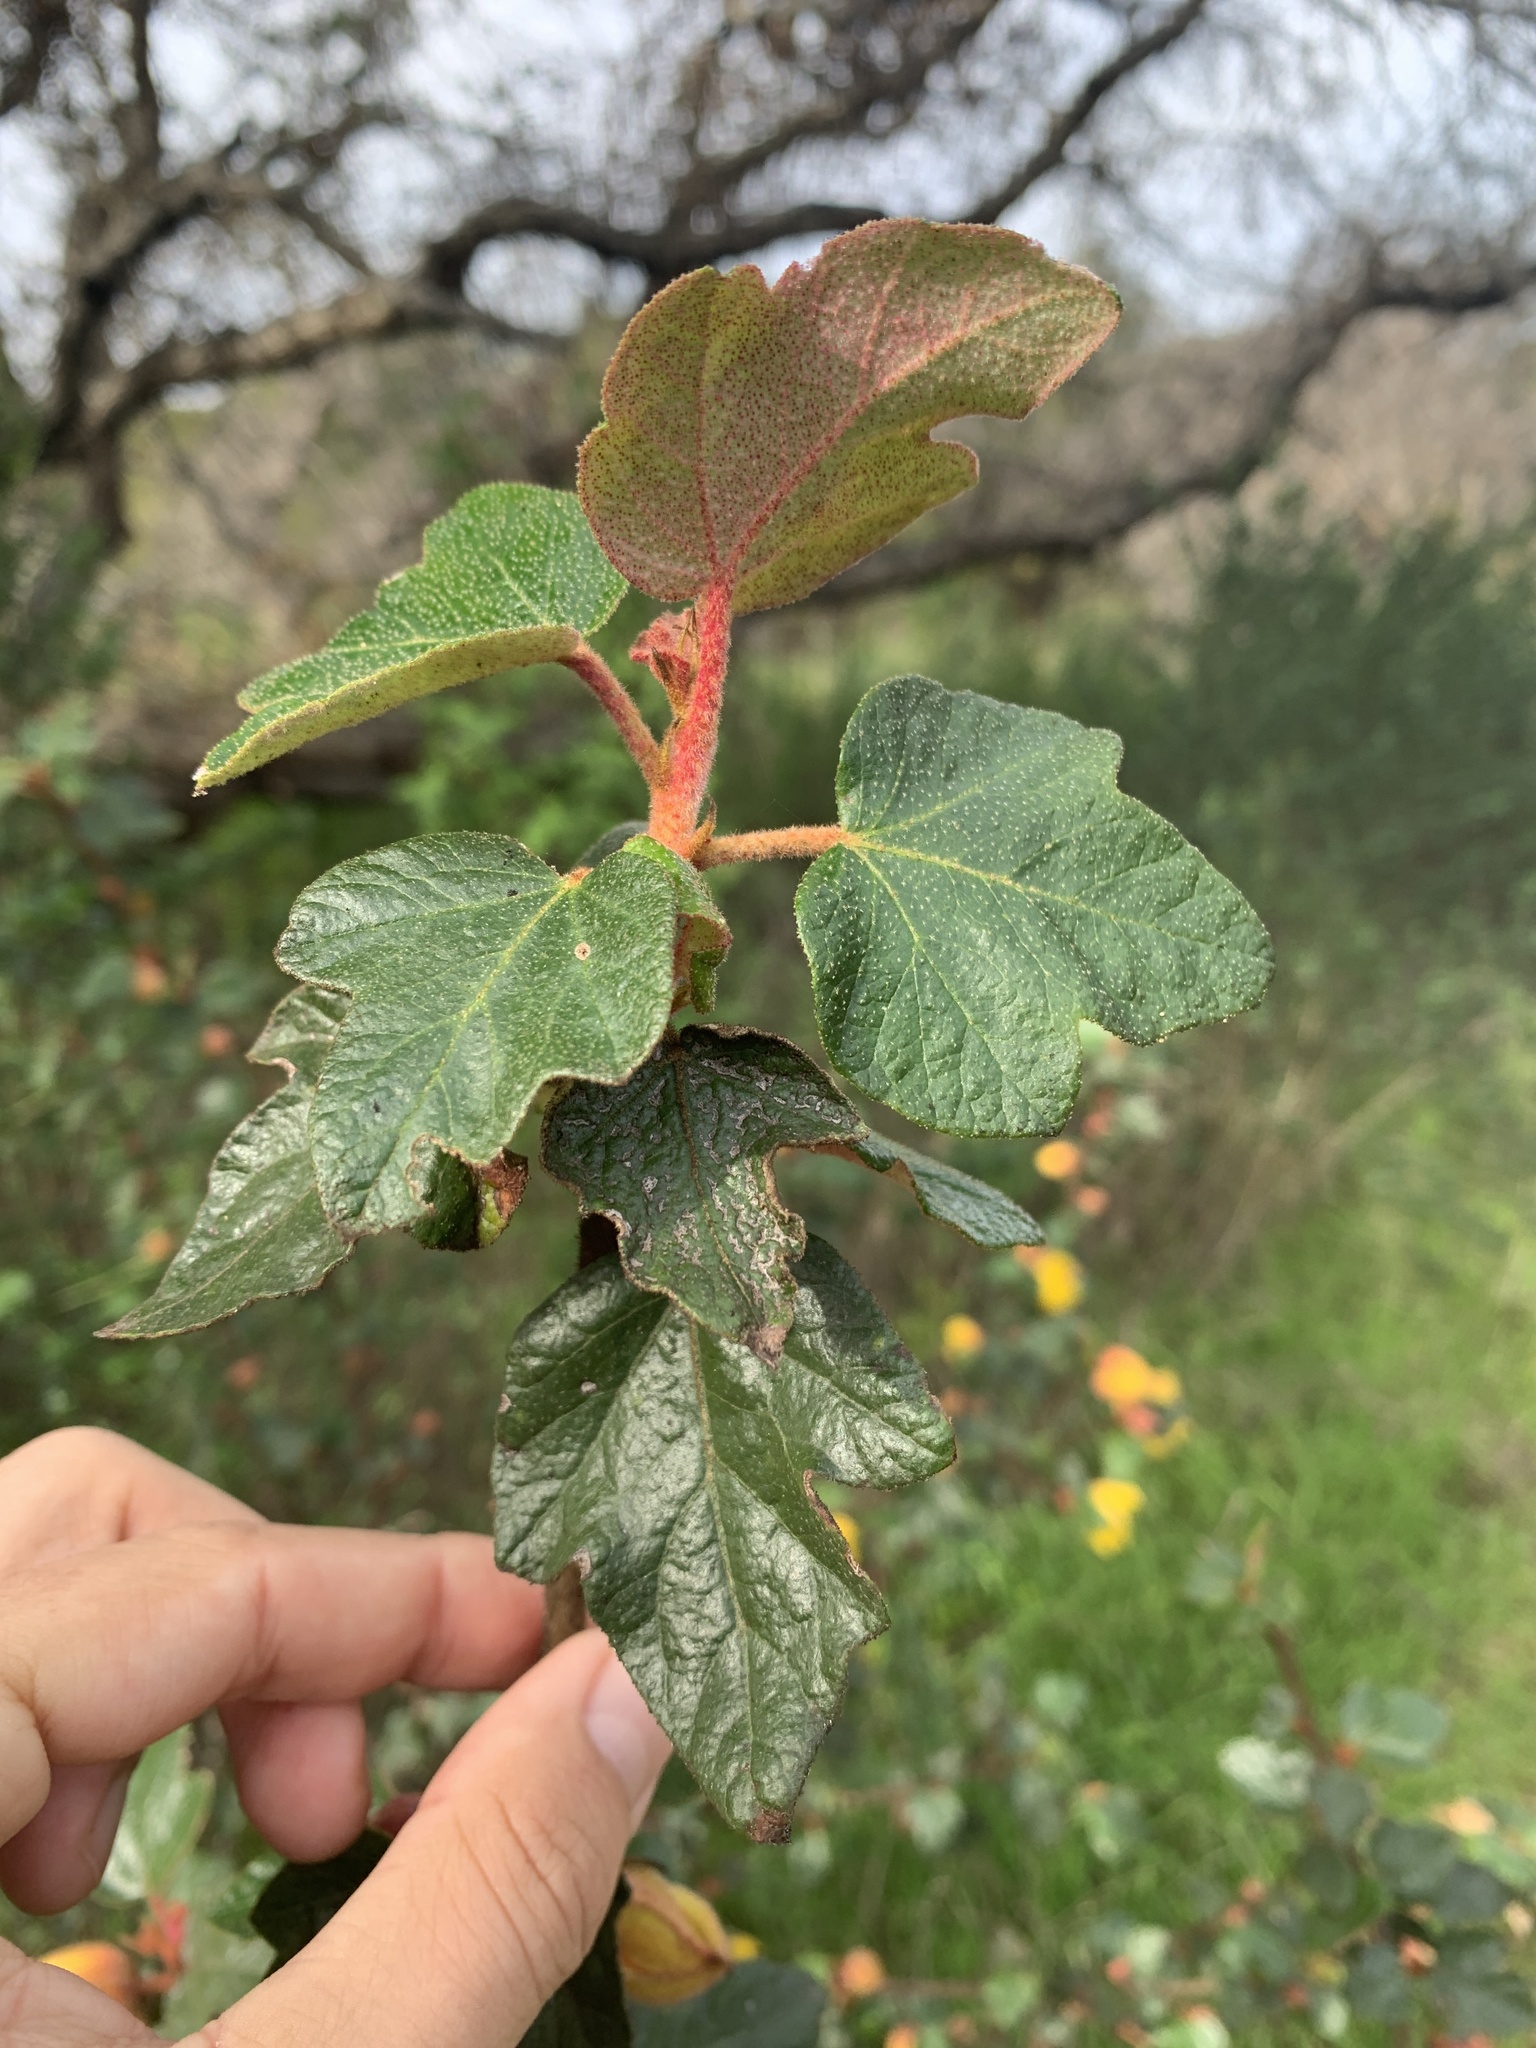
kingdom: Plantae
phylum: Tracheophyta
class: Magnoliopsida
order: Malvales
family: Malvaceae
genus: Fremontodendron
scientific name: Fremontodendron californicum
